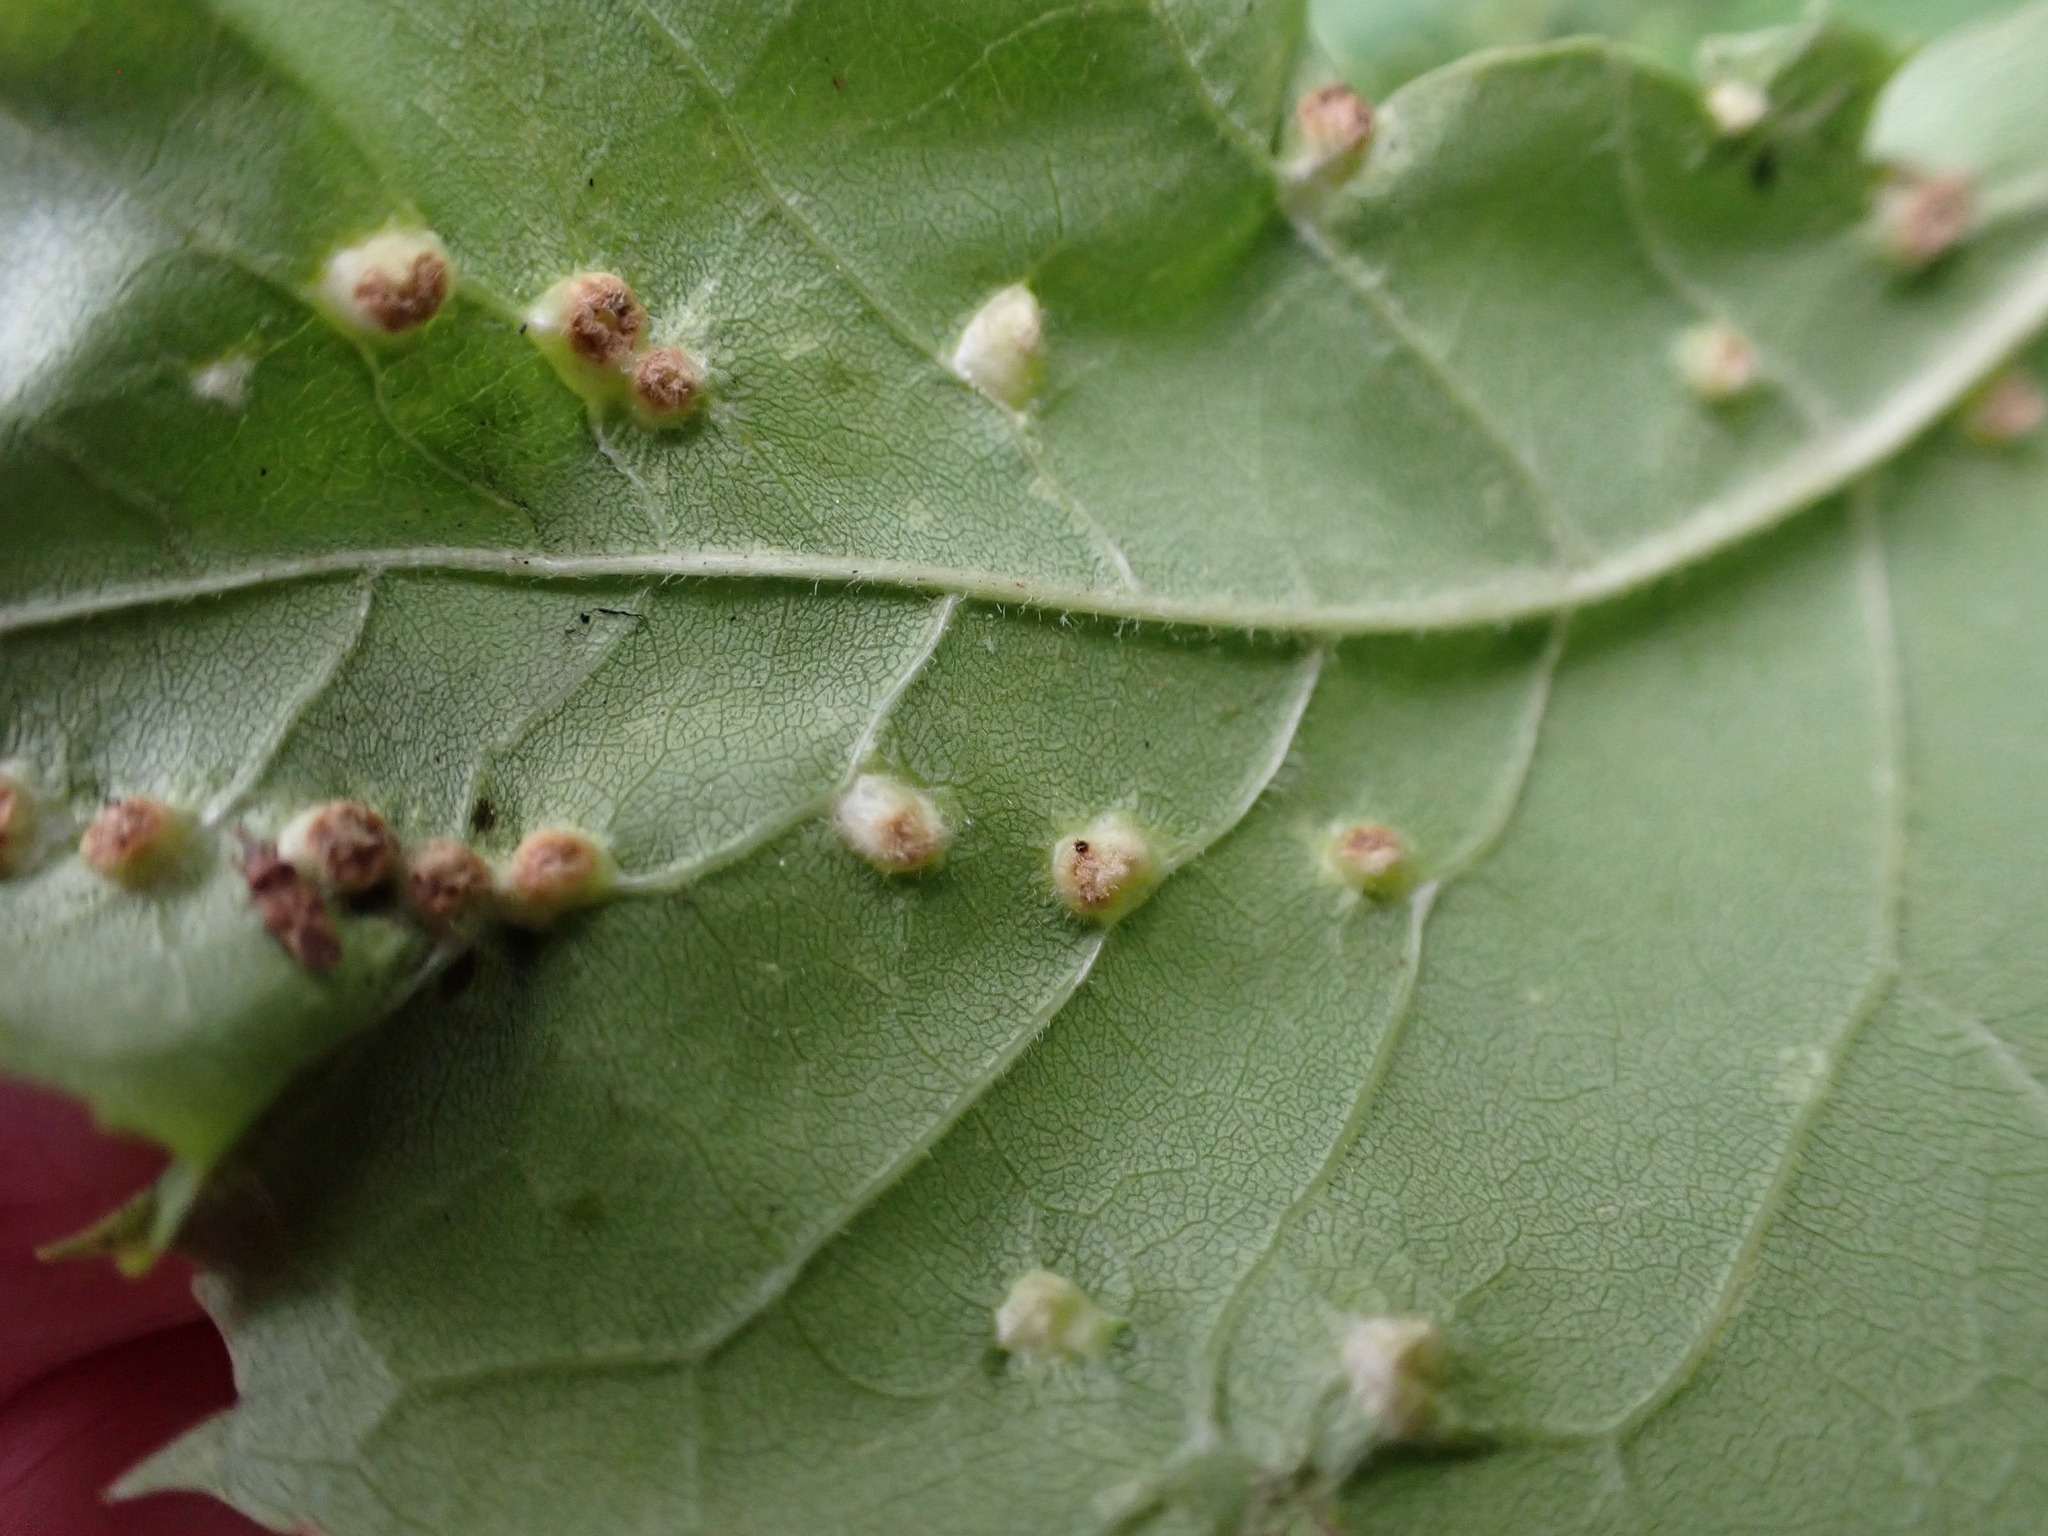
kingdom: Animalia
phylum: Arthropoda
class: Arachnida
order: Trombidiformes
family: Eriophyidae
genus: Aceria
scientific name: Aceria fraxinicola
